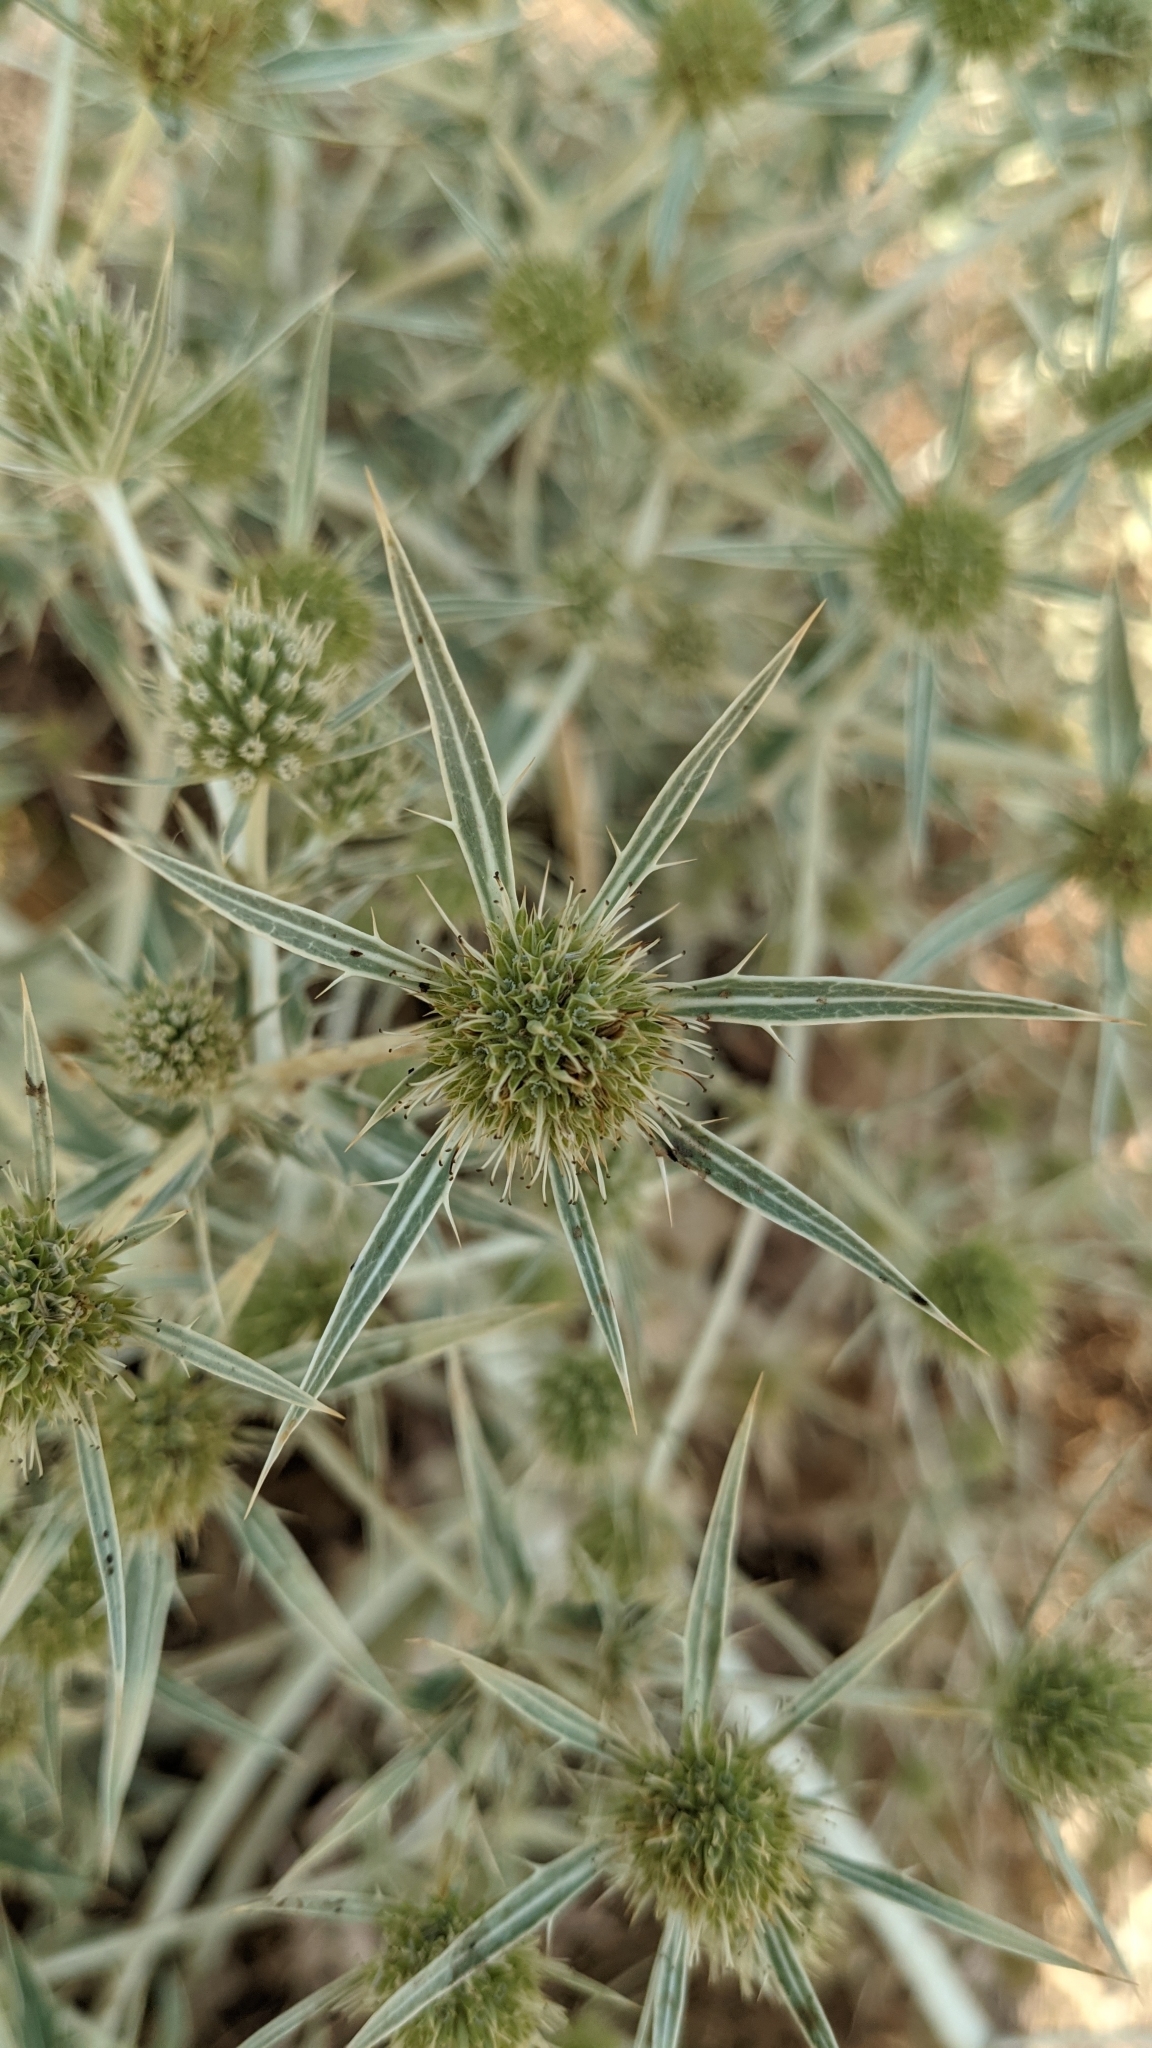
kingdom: Plantae
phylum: Tracheophyta
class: Magnoliopsida
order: Apiales
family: Apiaceae
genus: Eryngium
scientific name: Eryngium campestre
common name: Field eryngo
